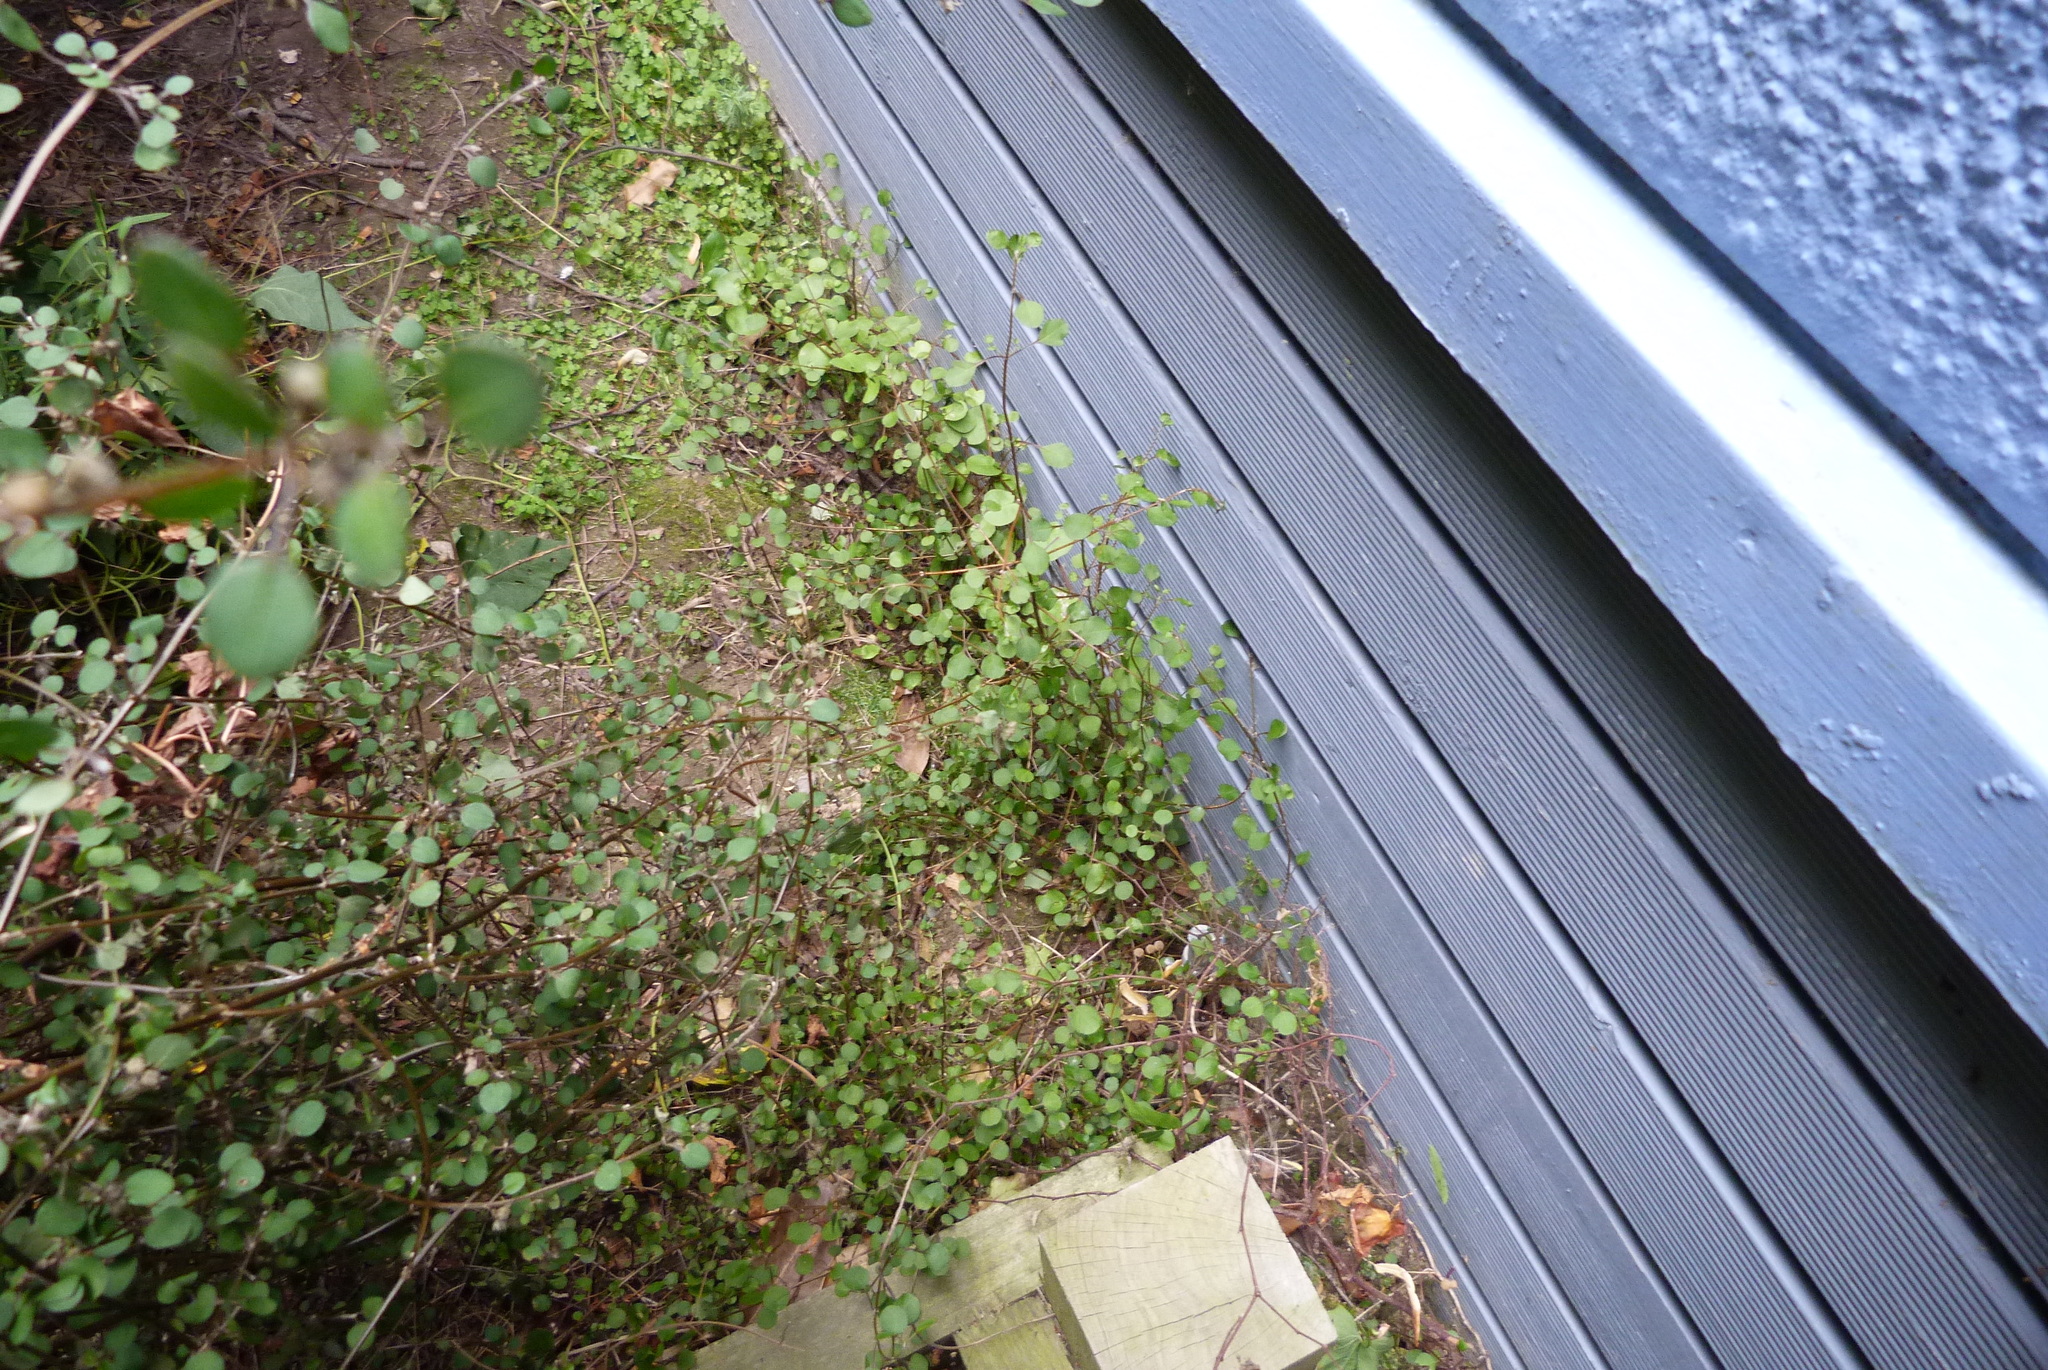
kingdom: Plantae
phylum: Tracheophyta
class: Magnoliopsida
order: Lamiales
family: Lamiaceae
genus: Teucrium
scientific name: Teucrium parvifolium
